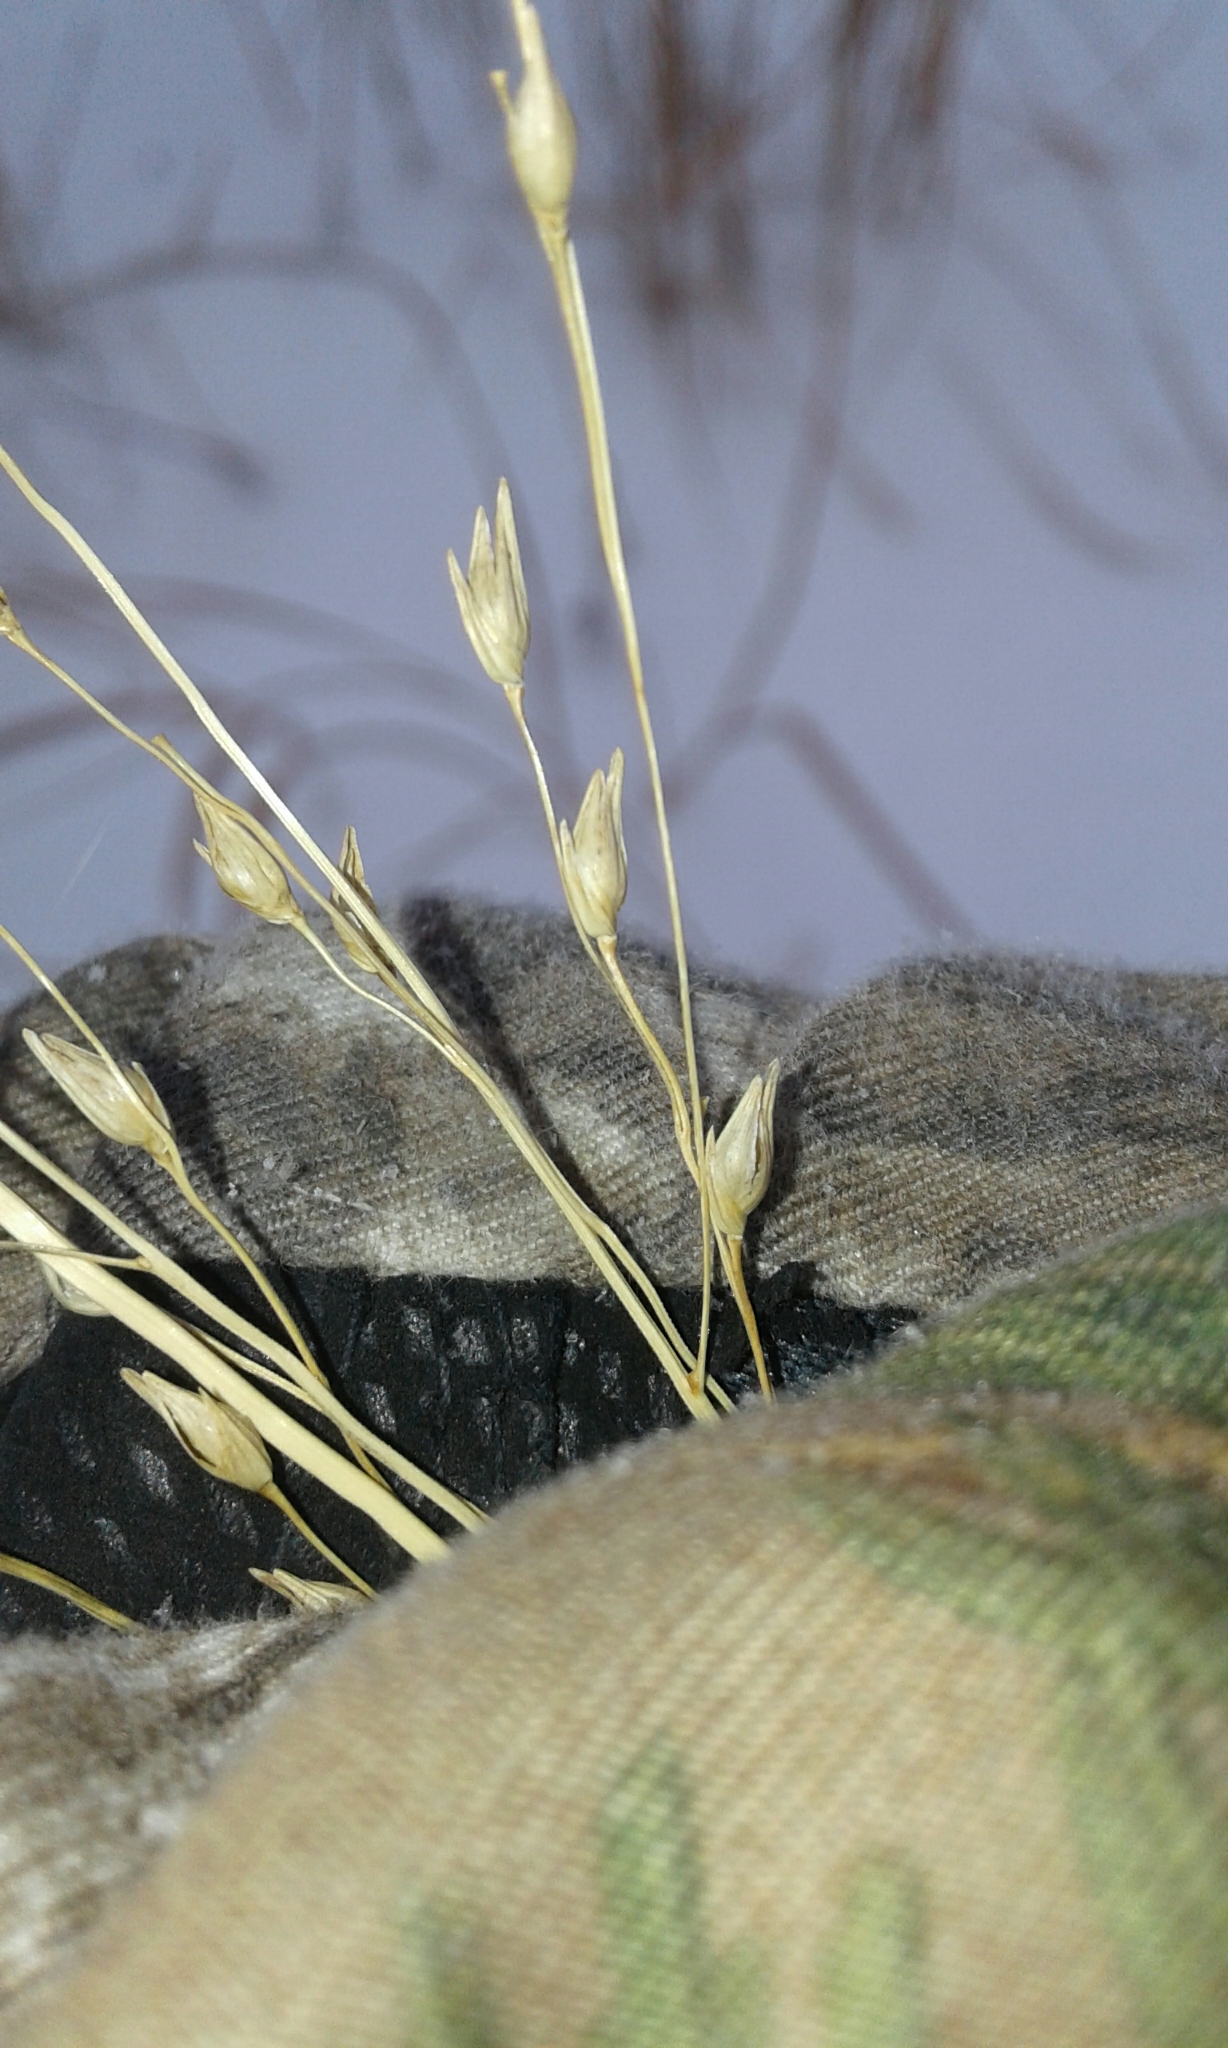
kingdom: Plantae
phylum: Tracheophyta
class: Liliopsida
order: Poales
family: Poaceae
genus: Panicum
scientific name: Panicum virgatum
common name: Switchgrass
